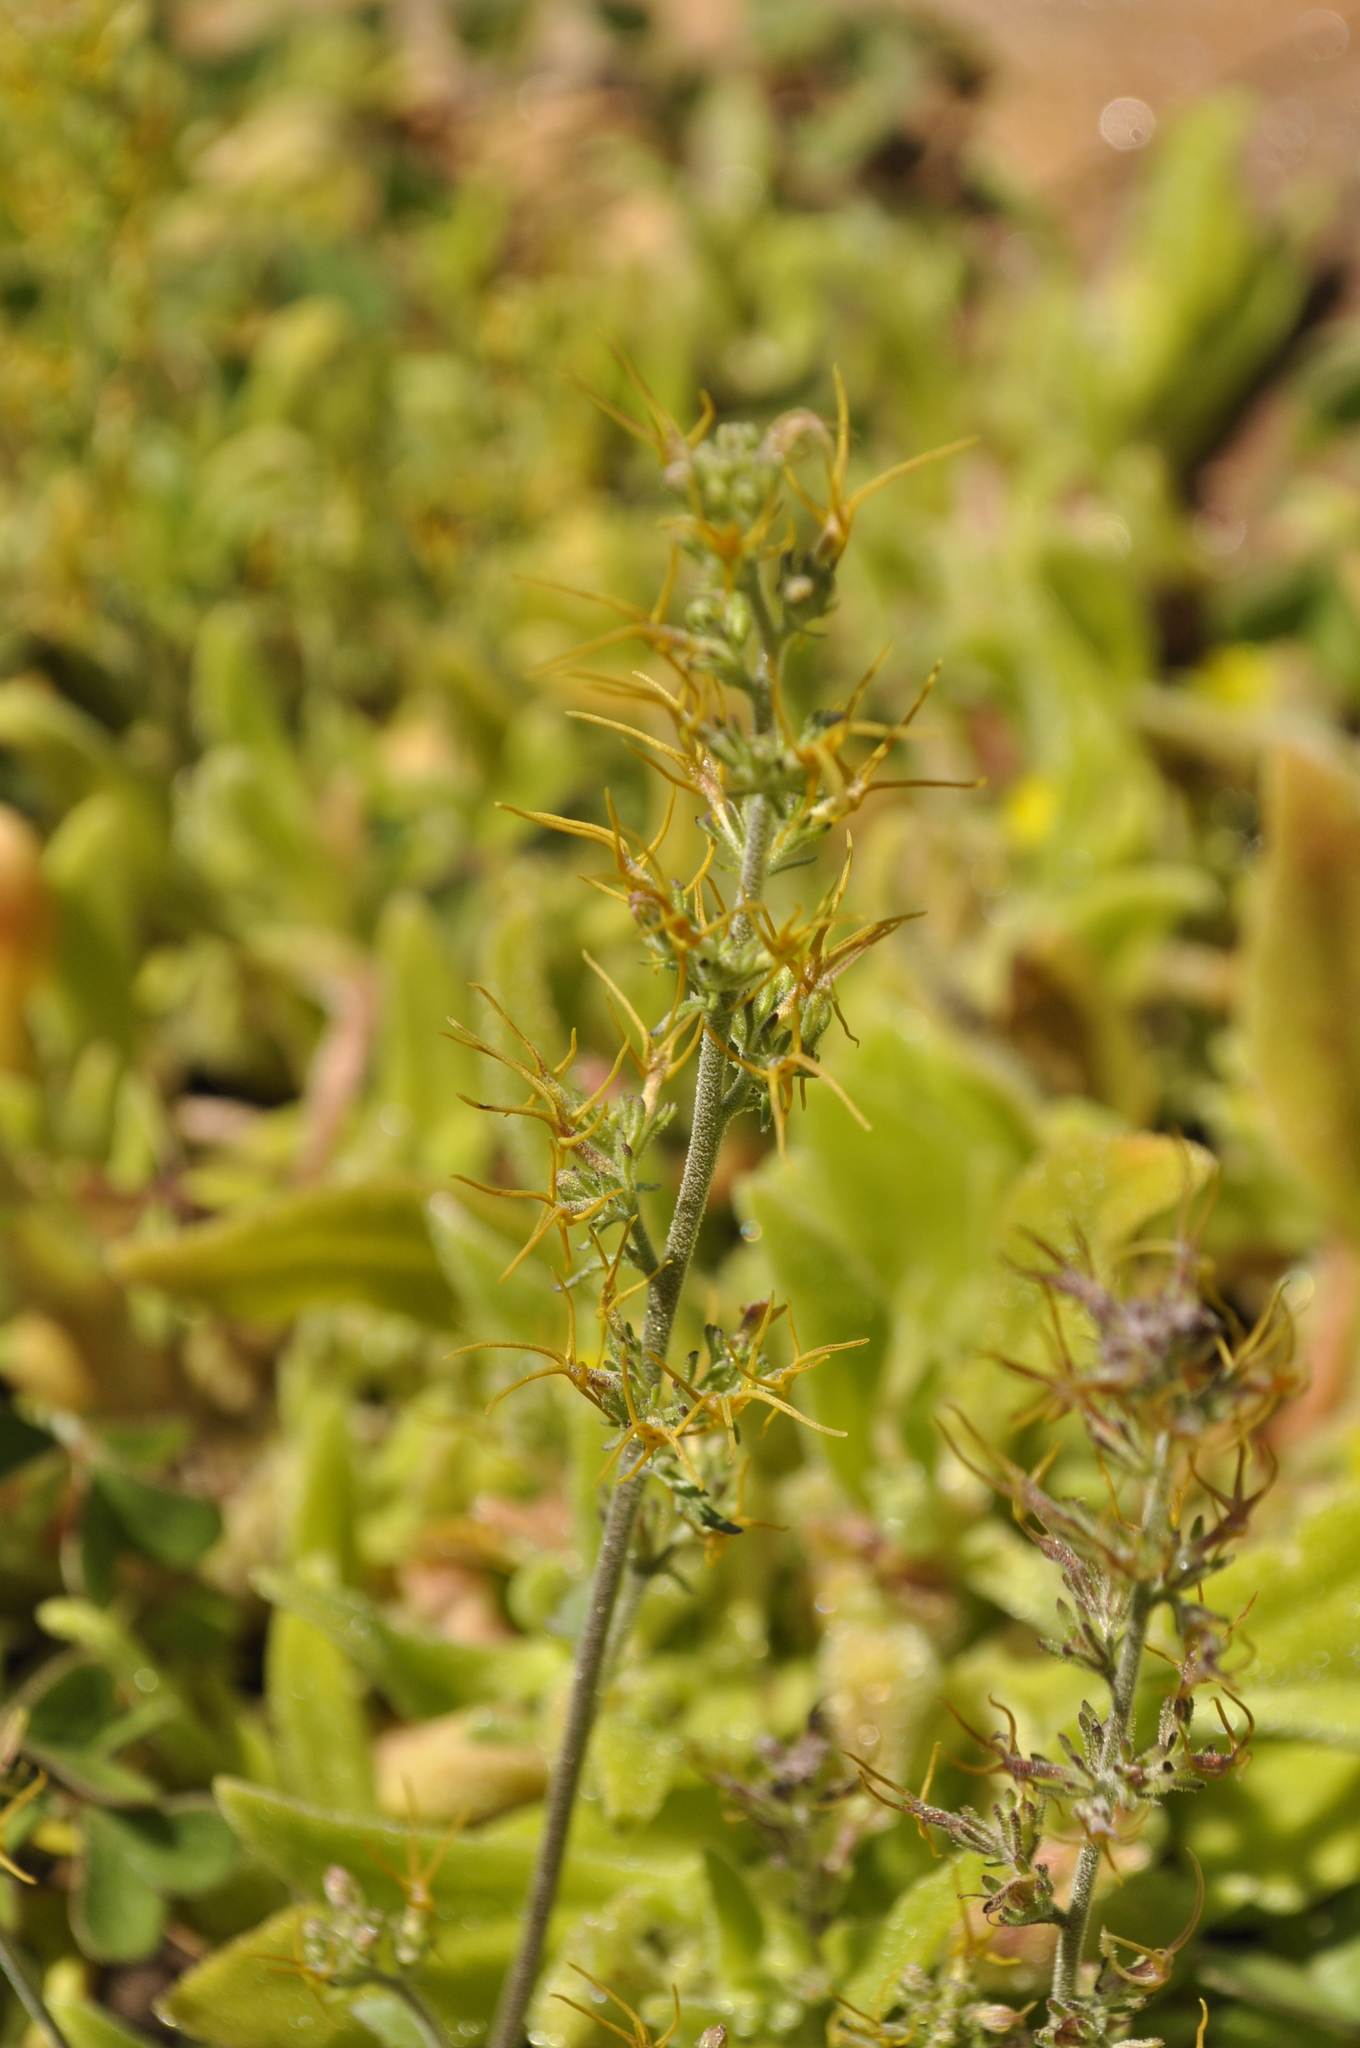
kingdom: Plantae
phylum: Tracheophyta
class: Magnoliopsida
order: Lamiales
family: Scrophulariaceae
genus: Manulea
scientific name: Manulea cheiranthus
